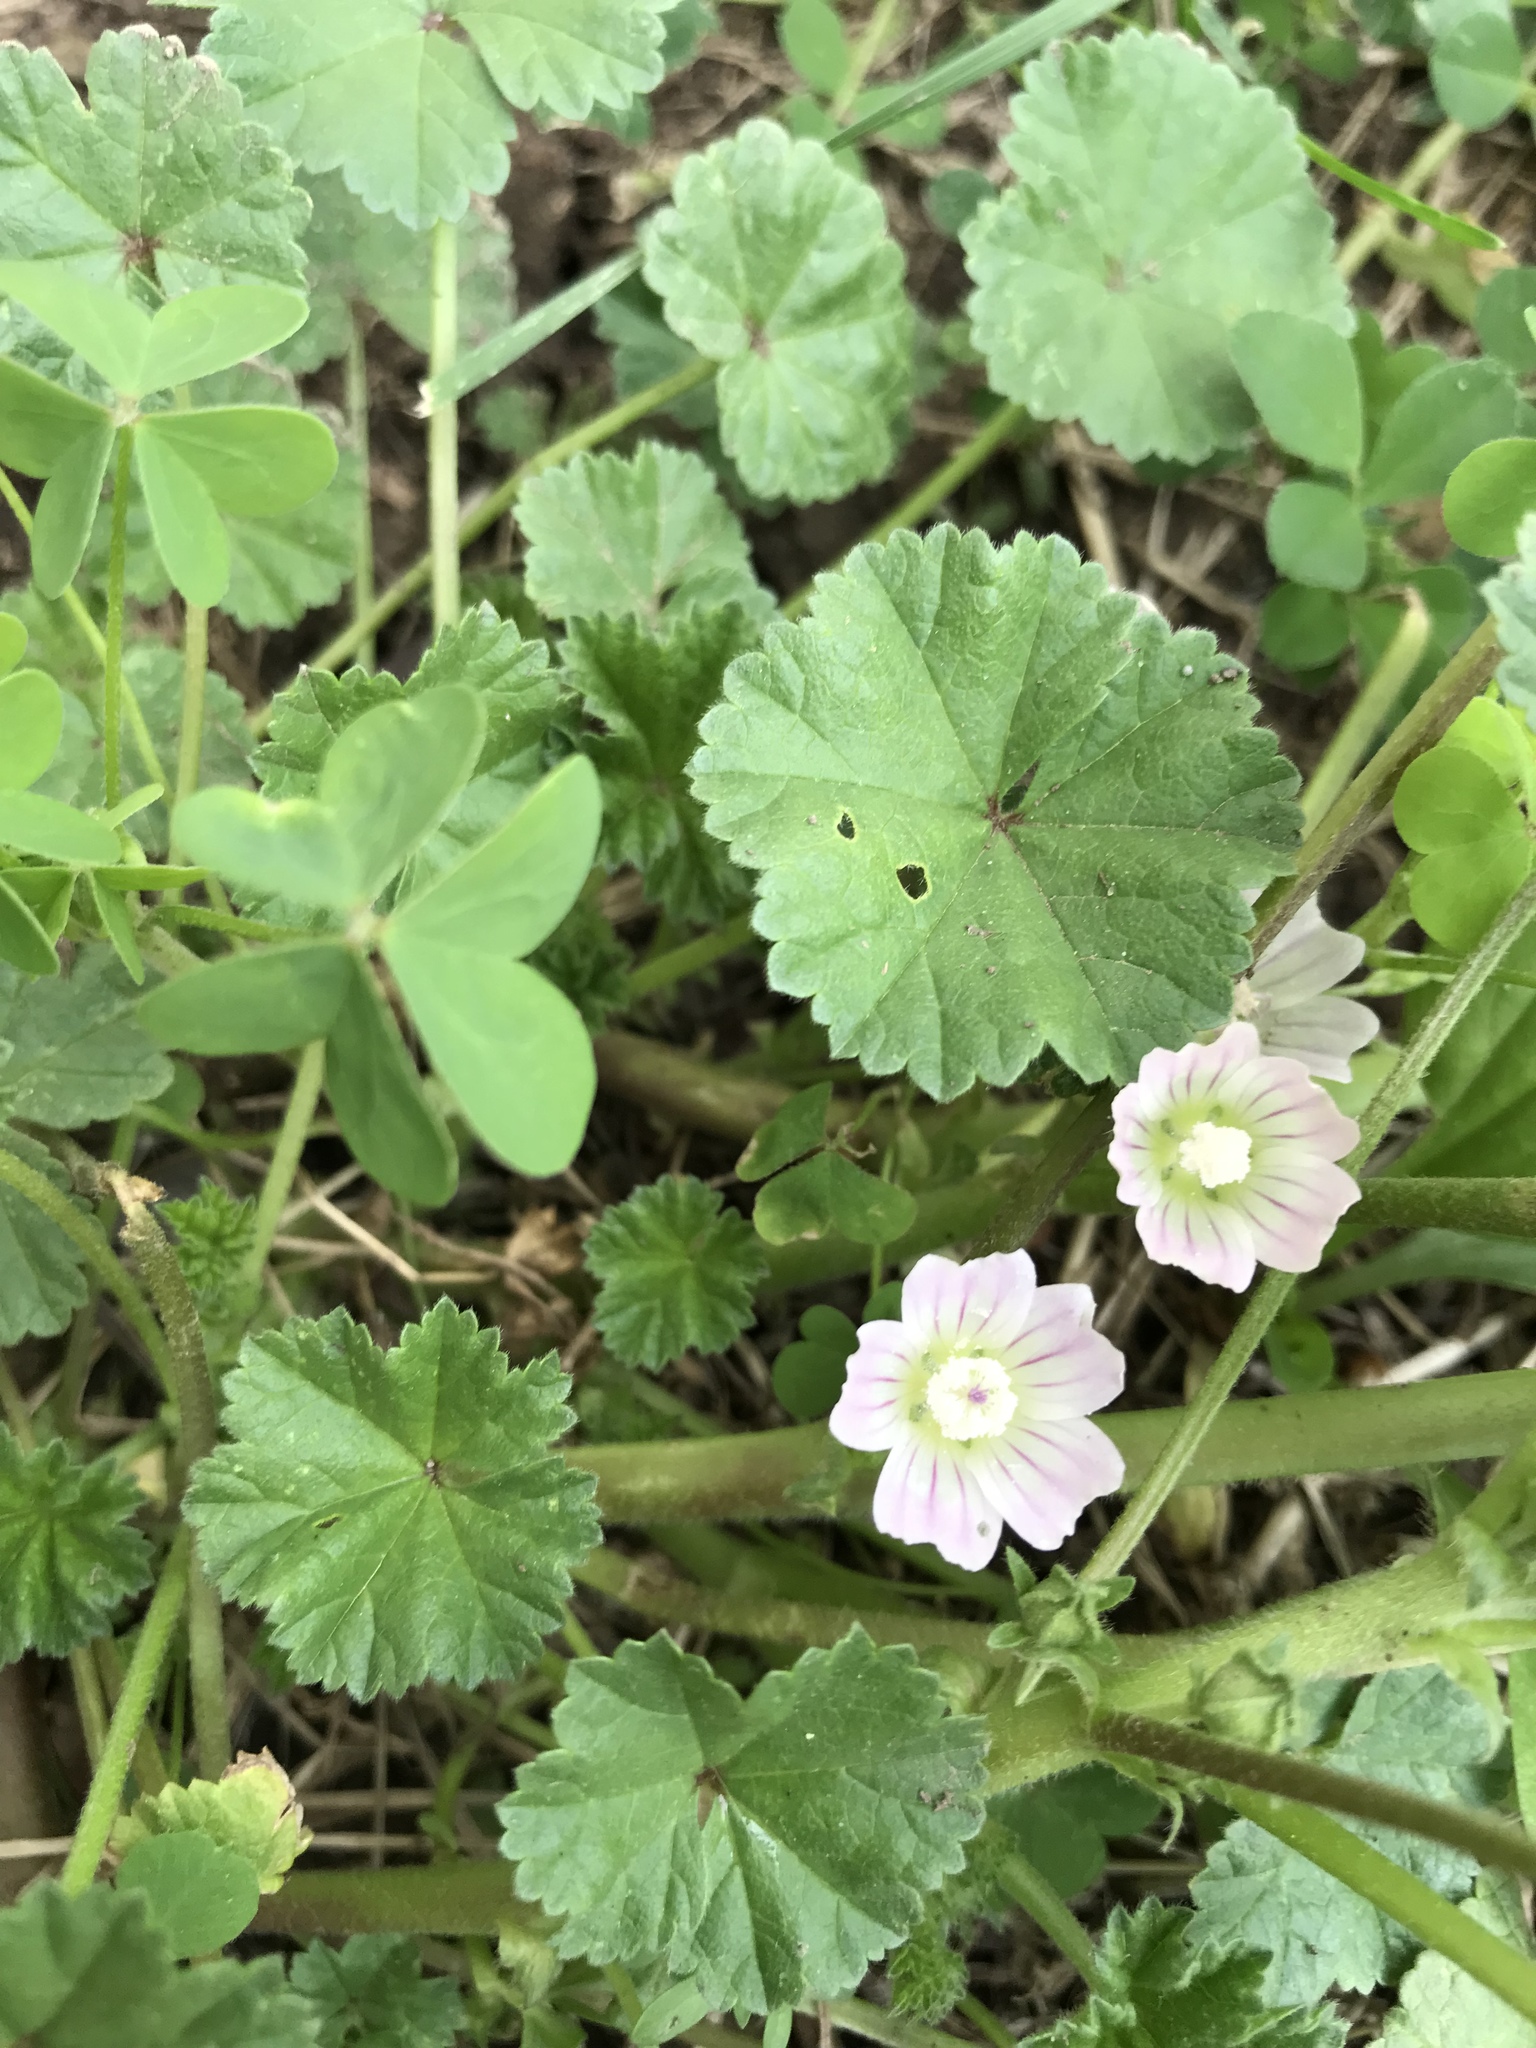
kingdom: Plantae
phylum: Tracheophyta
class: Magnoliopsida
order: Malvales
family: Malvaceae
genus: Malva
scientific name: Malva neglecta
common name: Common mallow
